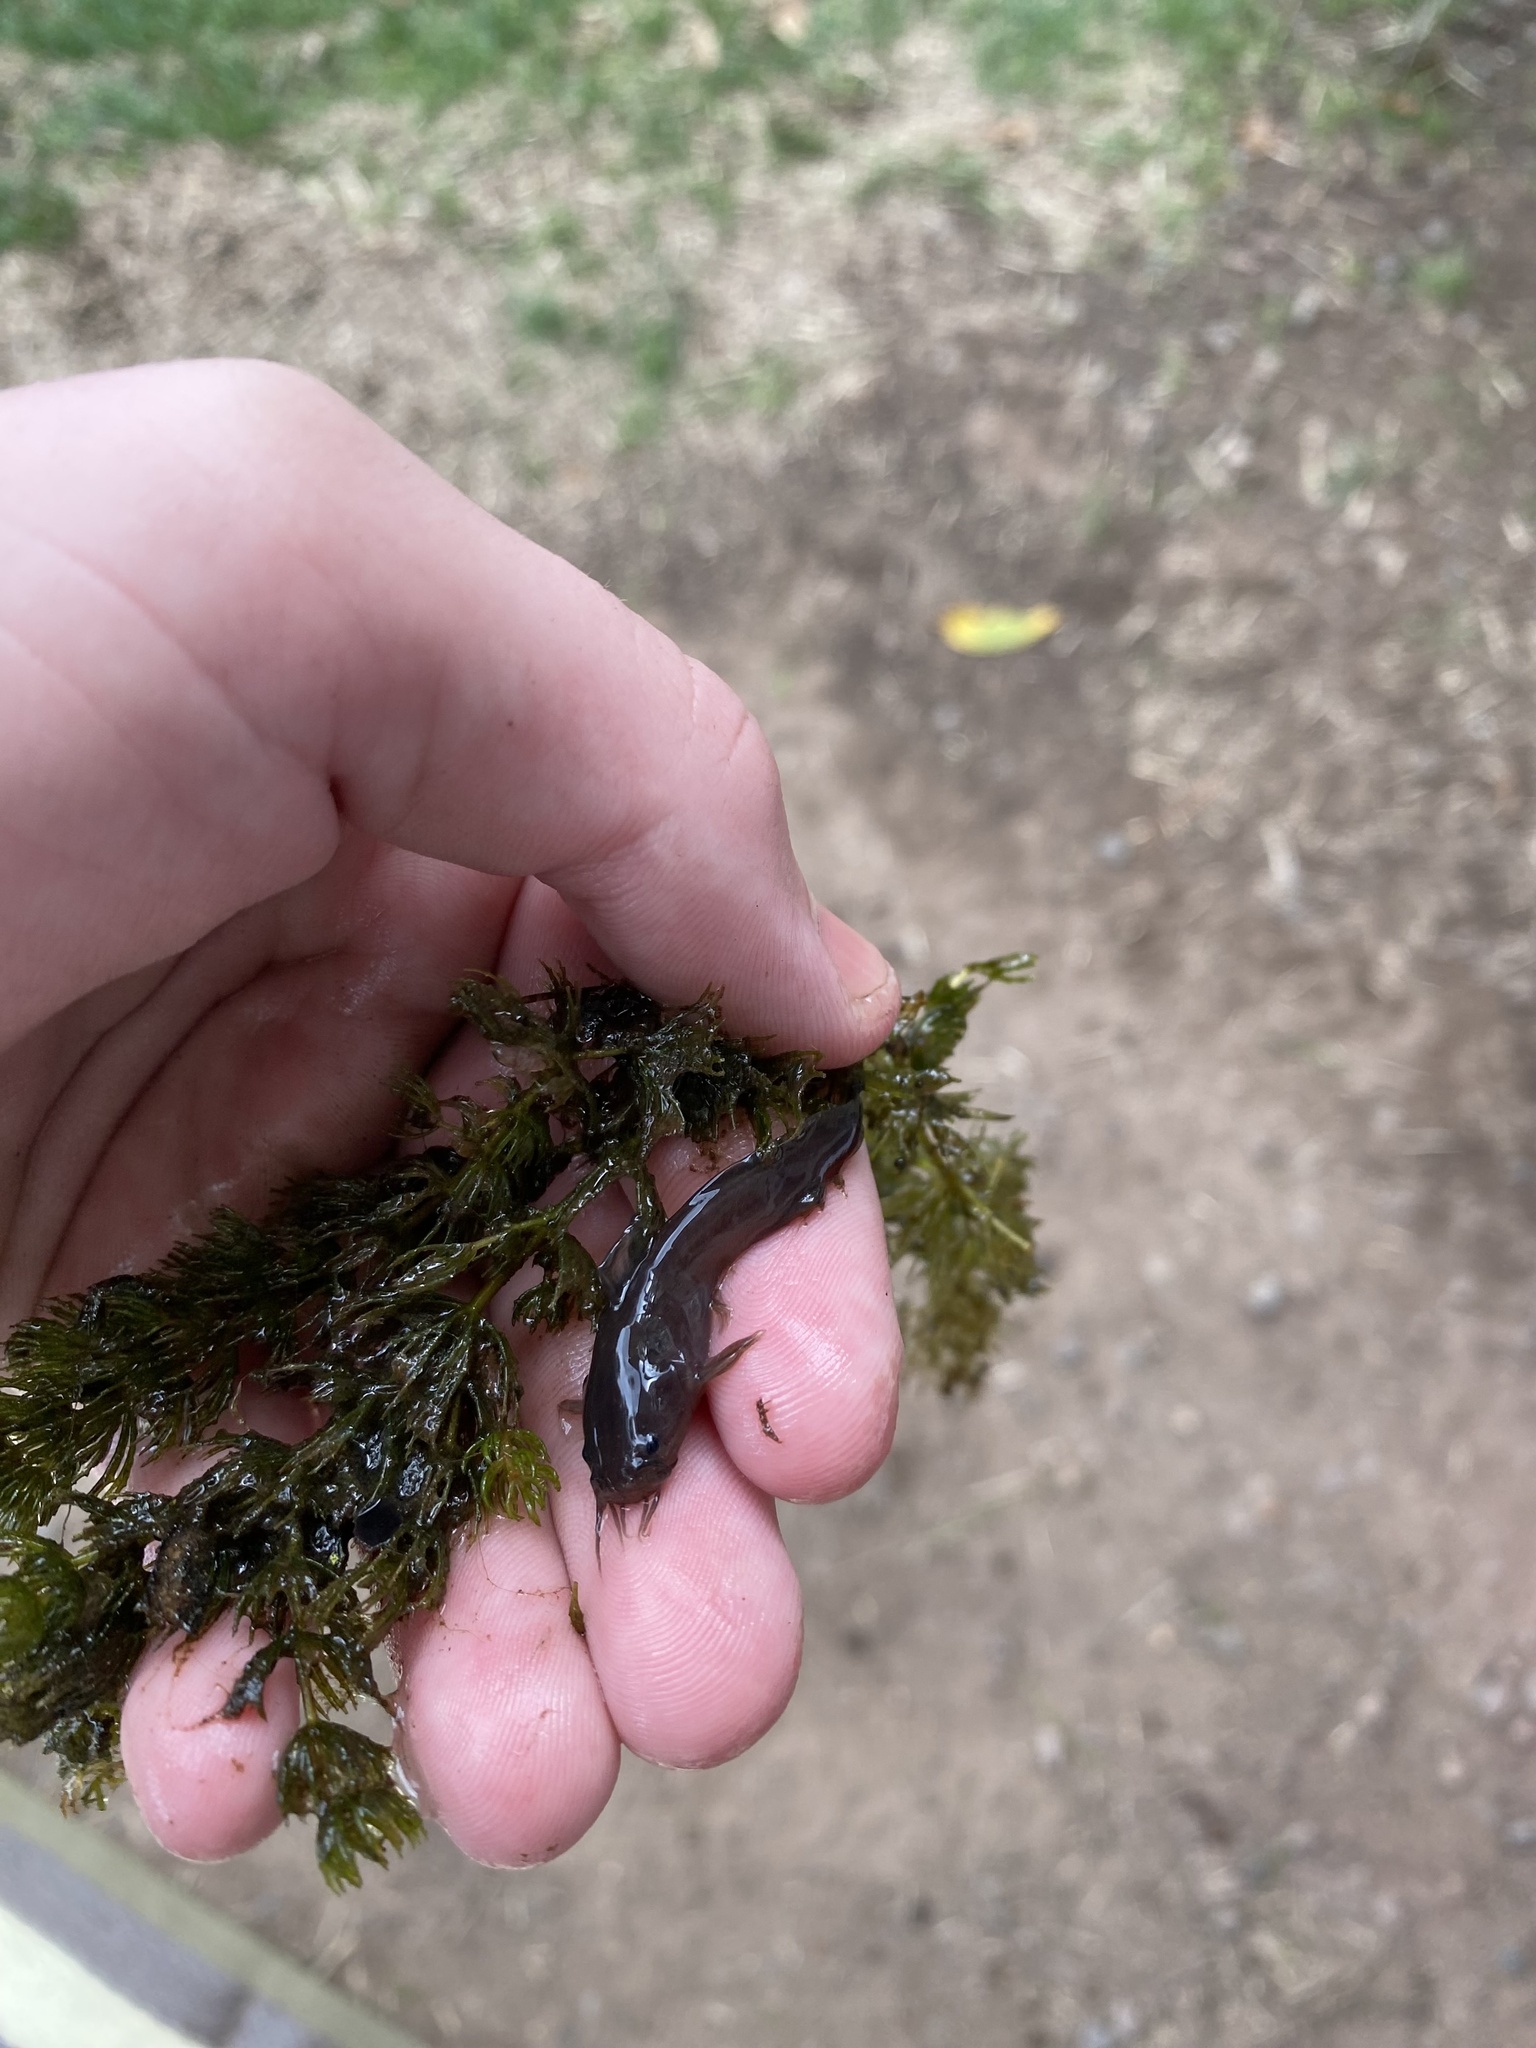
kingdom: Animalia
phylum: Chordata
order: Siluriformes
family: Ictaluridae
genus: Noturus
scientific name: Noturus gyrinus
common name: Tadpole madtom
